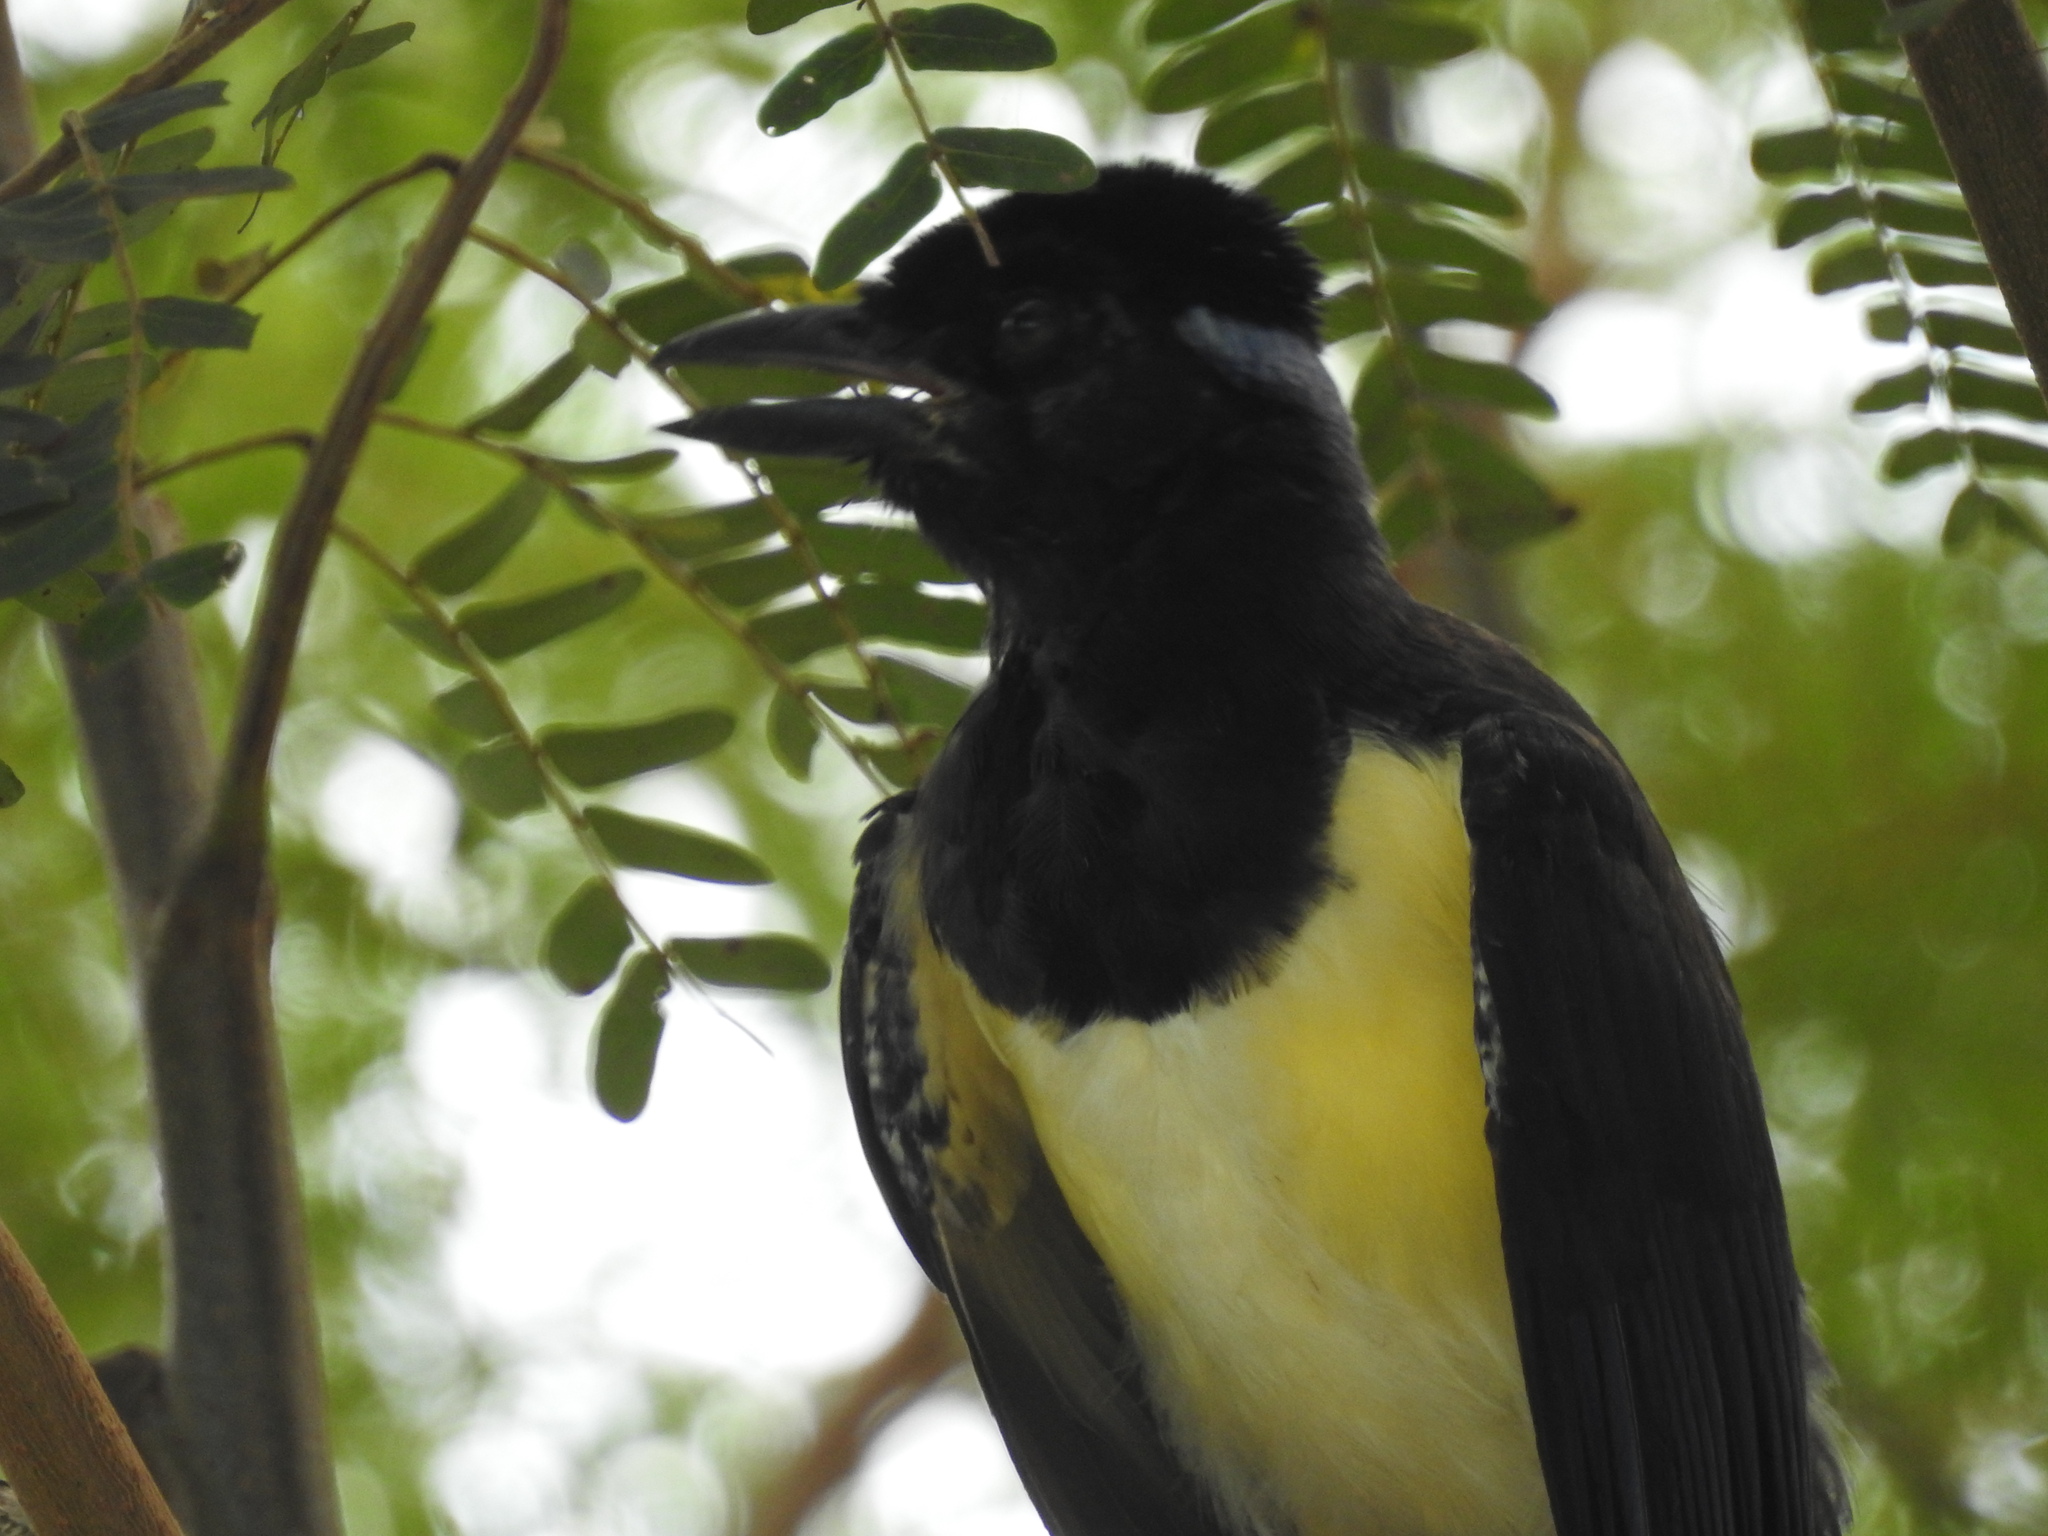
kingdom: Animalia
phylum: Chordata
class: Aves
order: Passeriformes
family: Corvidae
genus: Cyanocorax
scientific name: Cyanocorax chrysops
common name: Plush-crested jay
